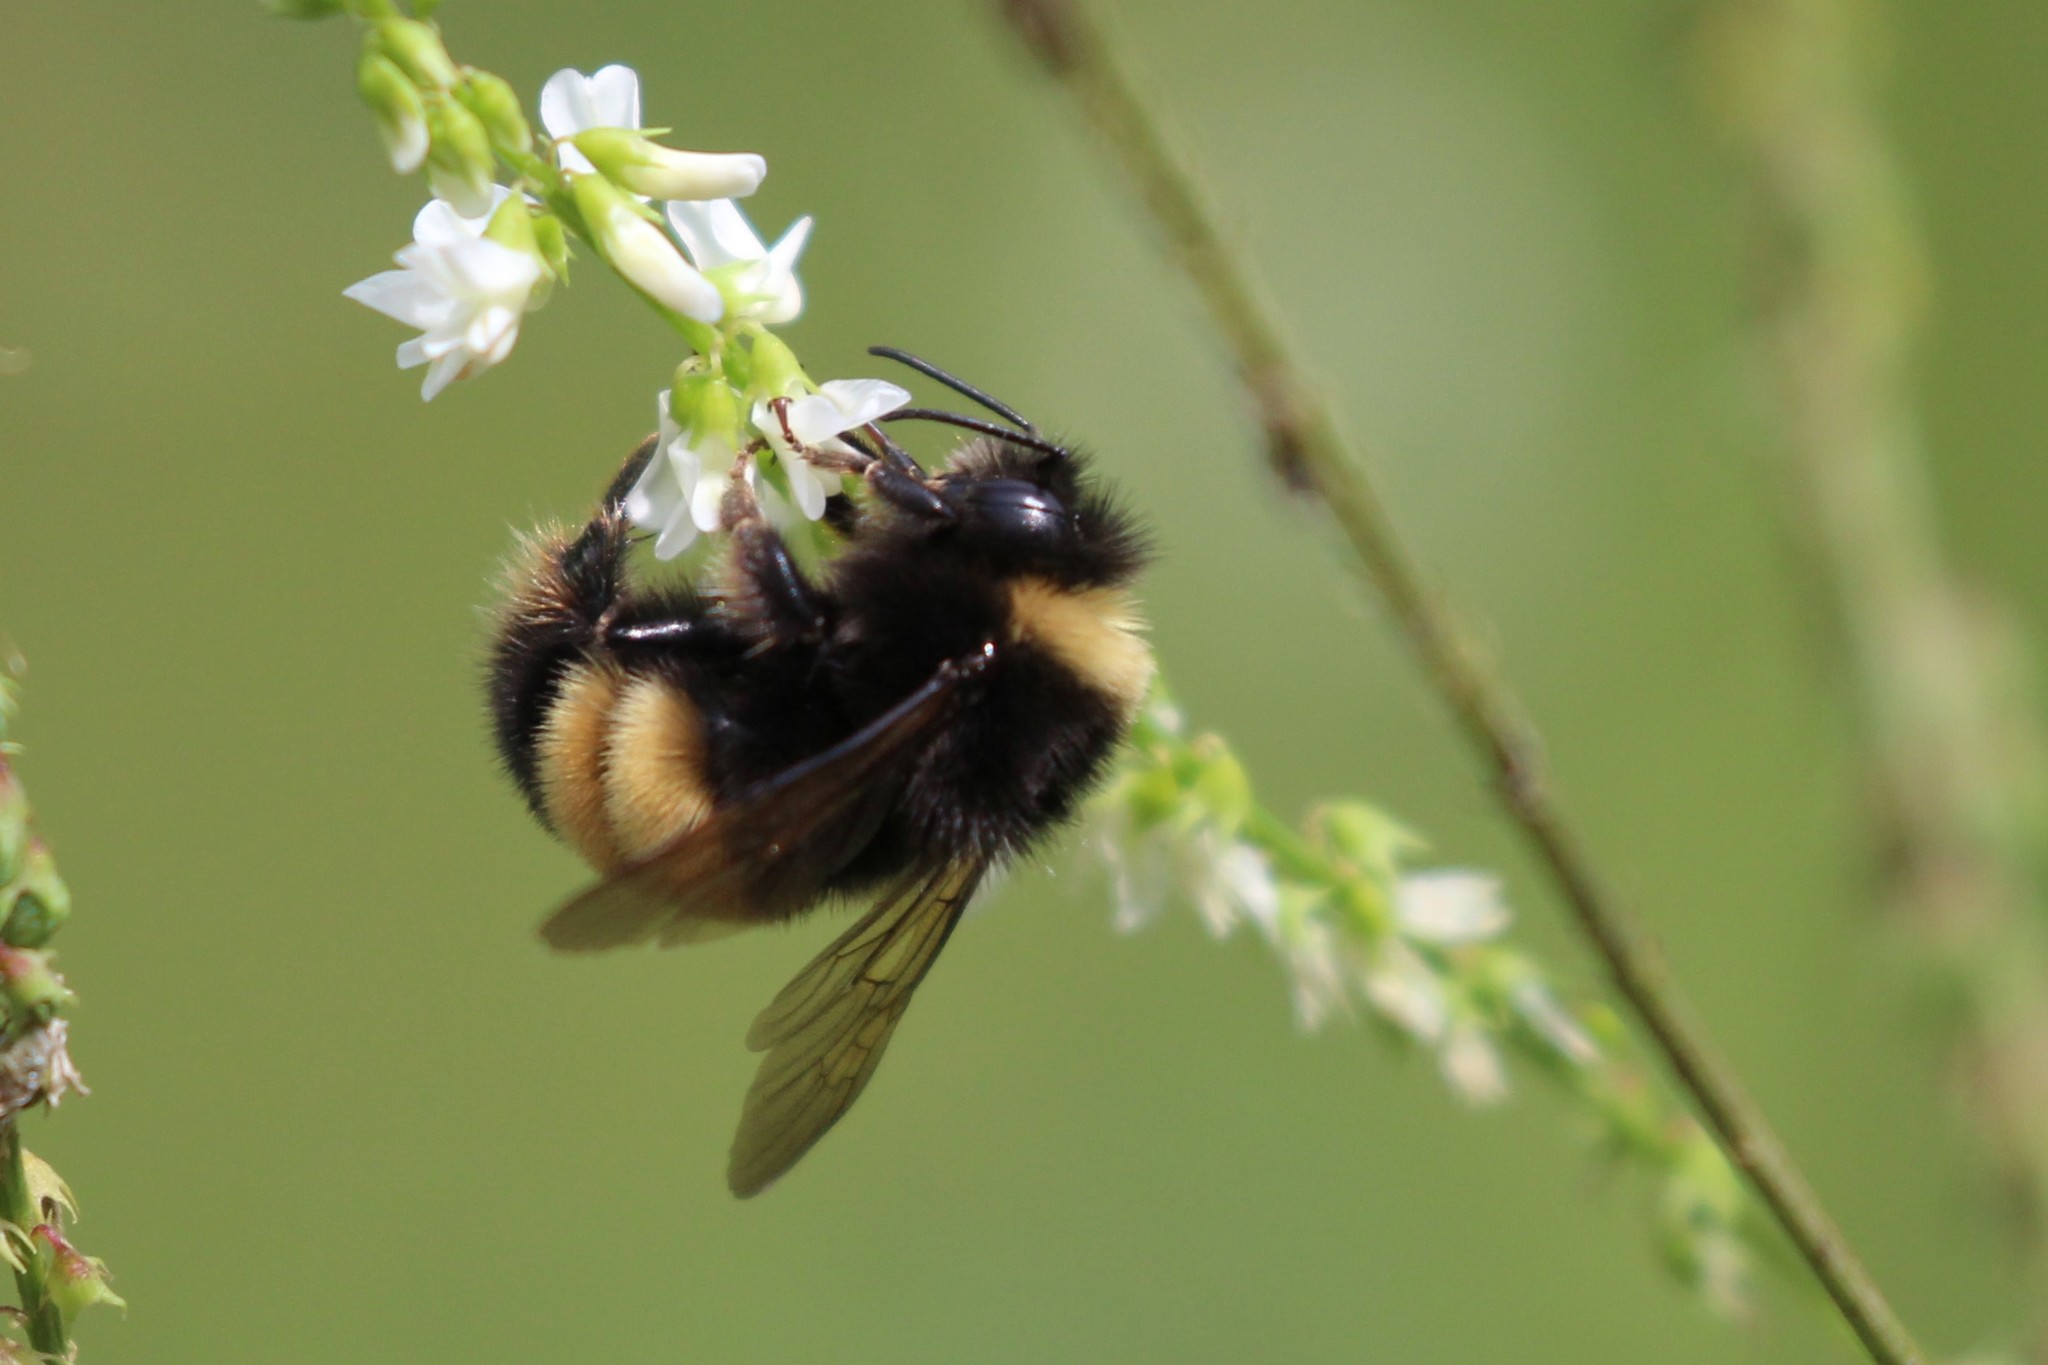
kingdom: Animalia
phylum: Arthropoda
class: Insecta
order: Hymenoptera
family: Apidae
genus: Bombus
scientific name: Bombus terricola
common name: Yellow-banded bumble bee
